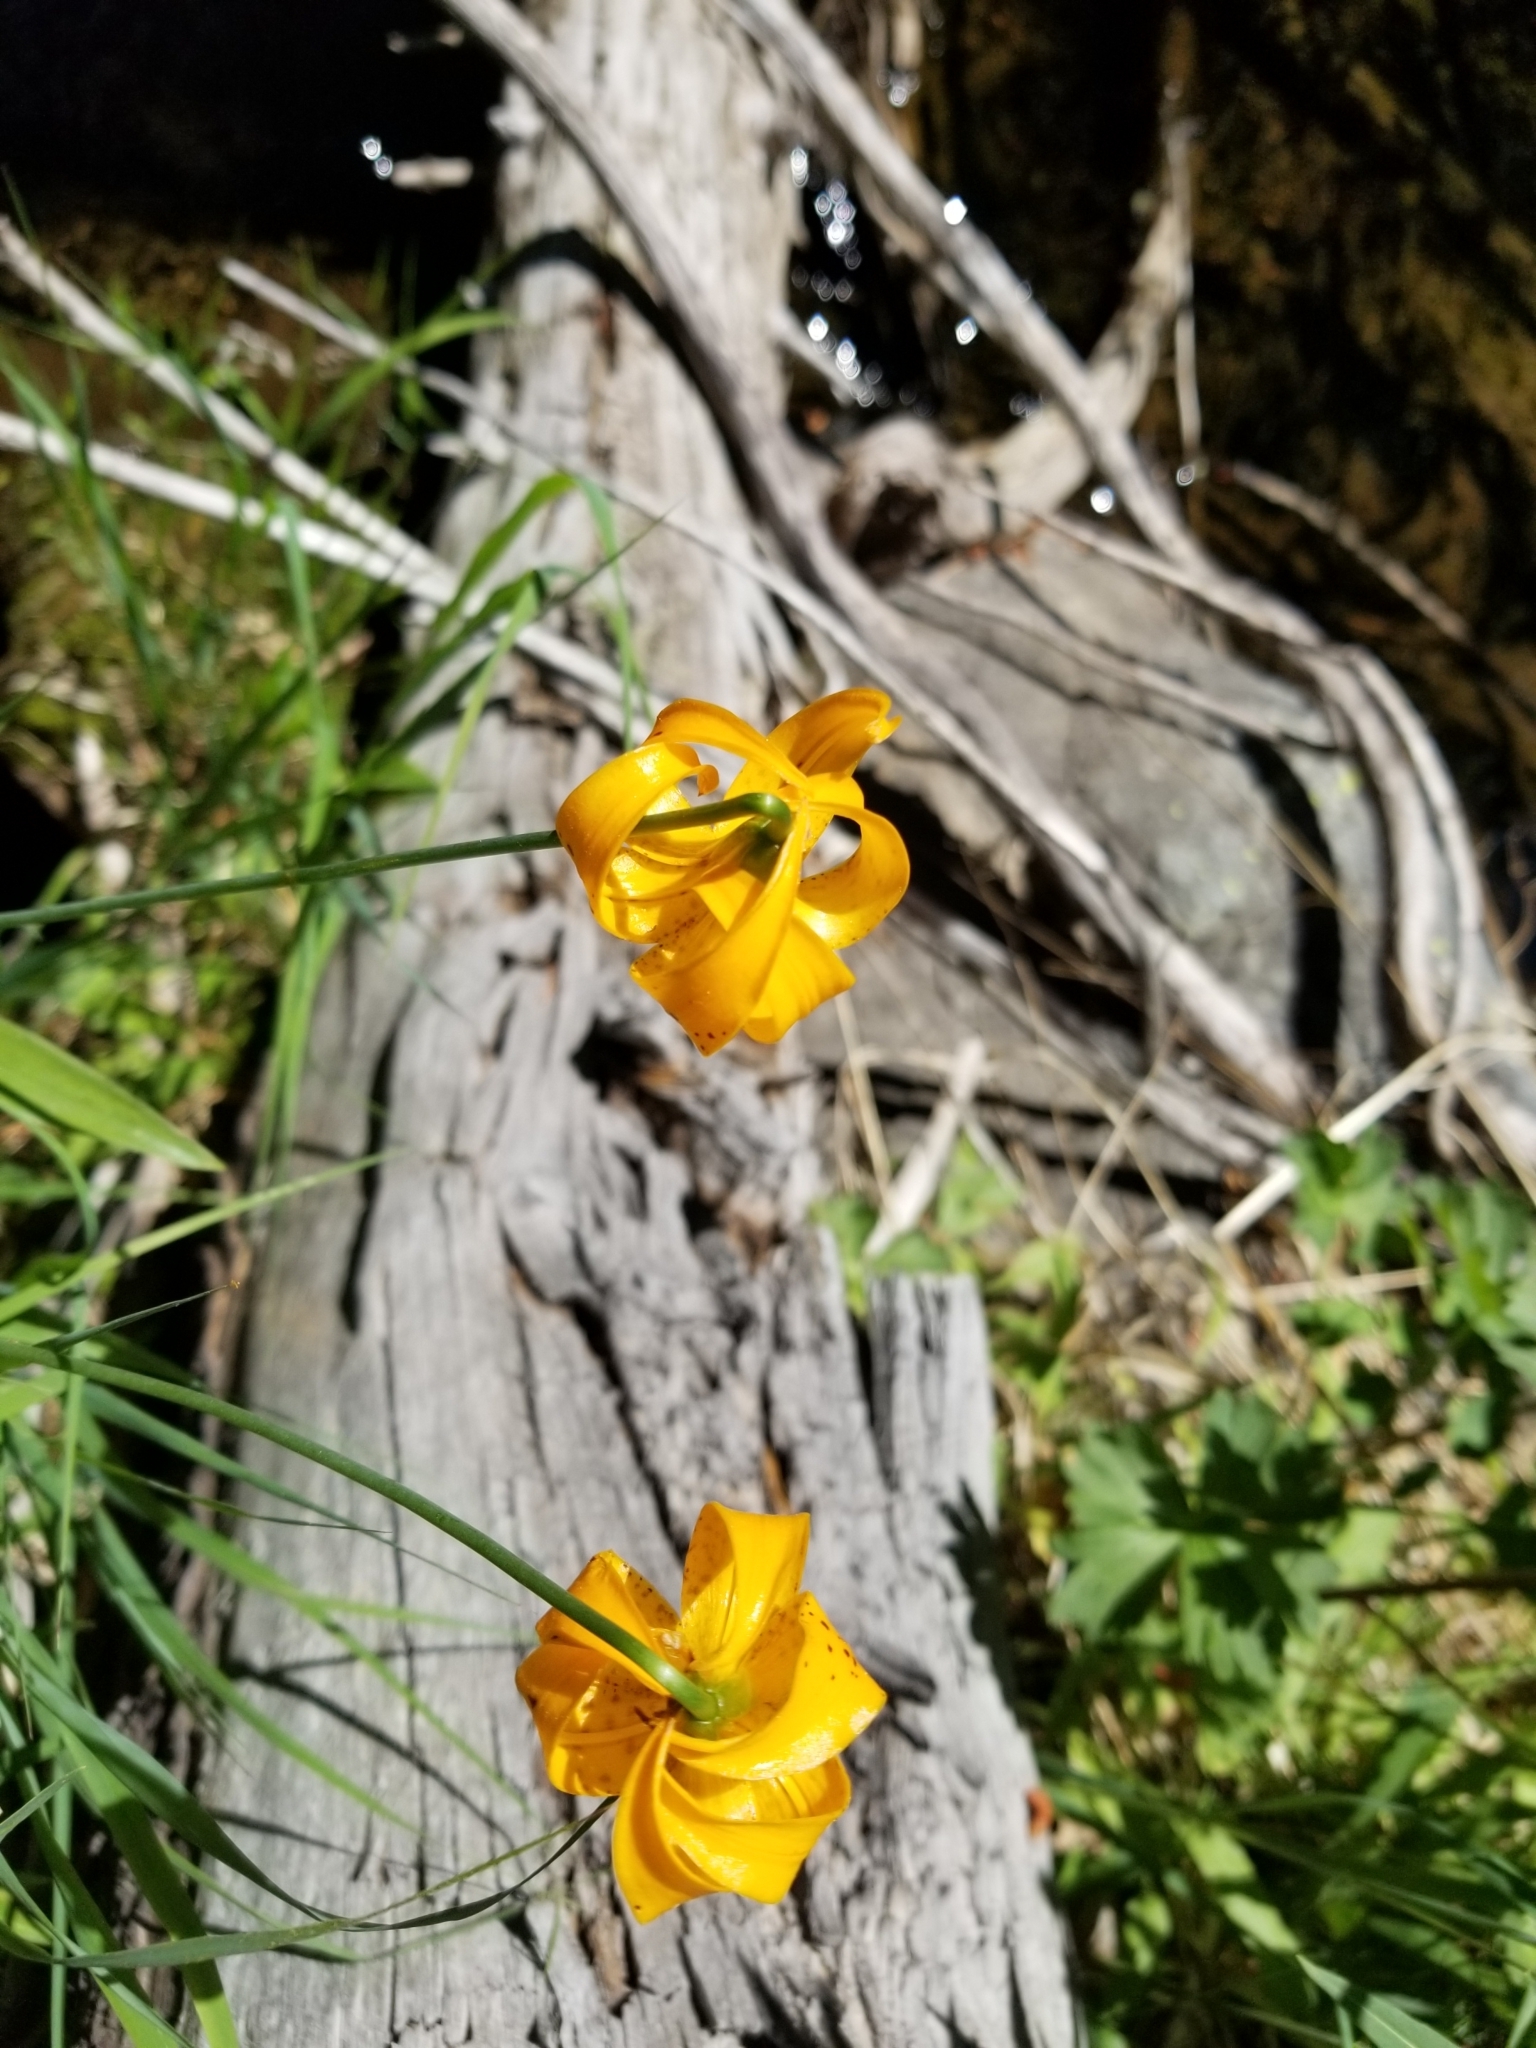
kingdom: Plantae
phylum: Tracheophyta
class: Liliopsida
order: Liliales
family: Liliaceae
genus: Lilium
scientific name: Lilium kelleyanum
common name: Kelley's lily
